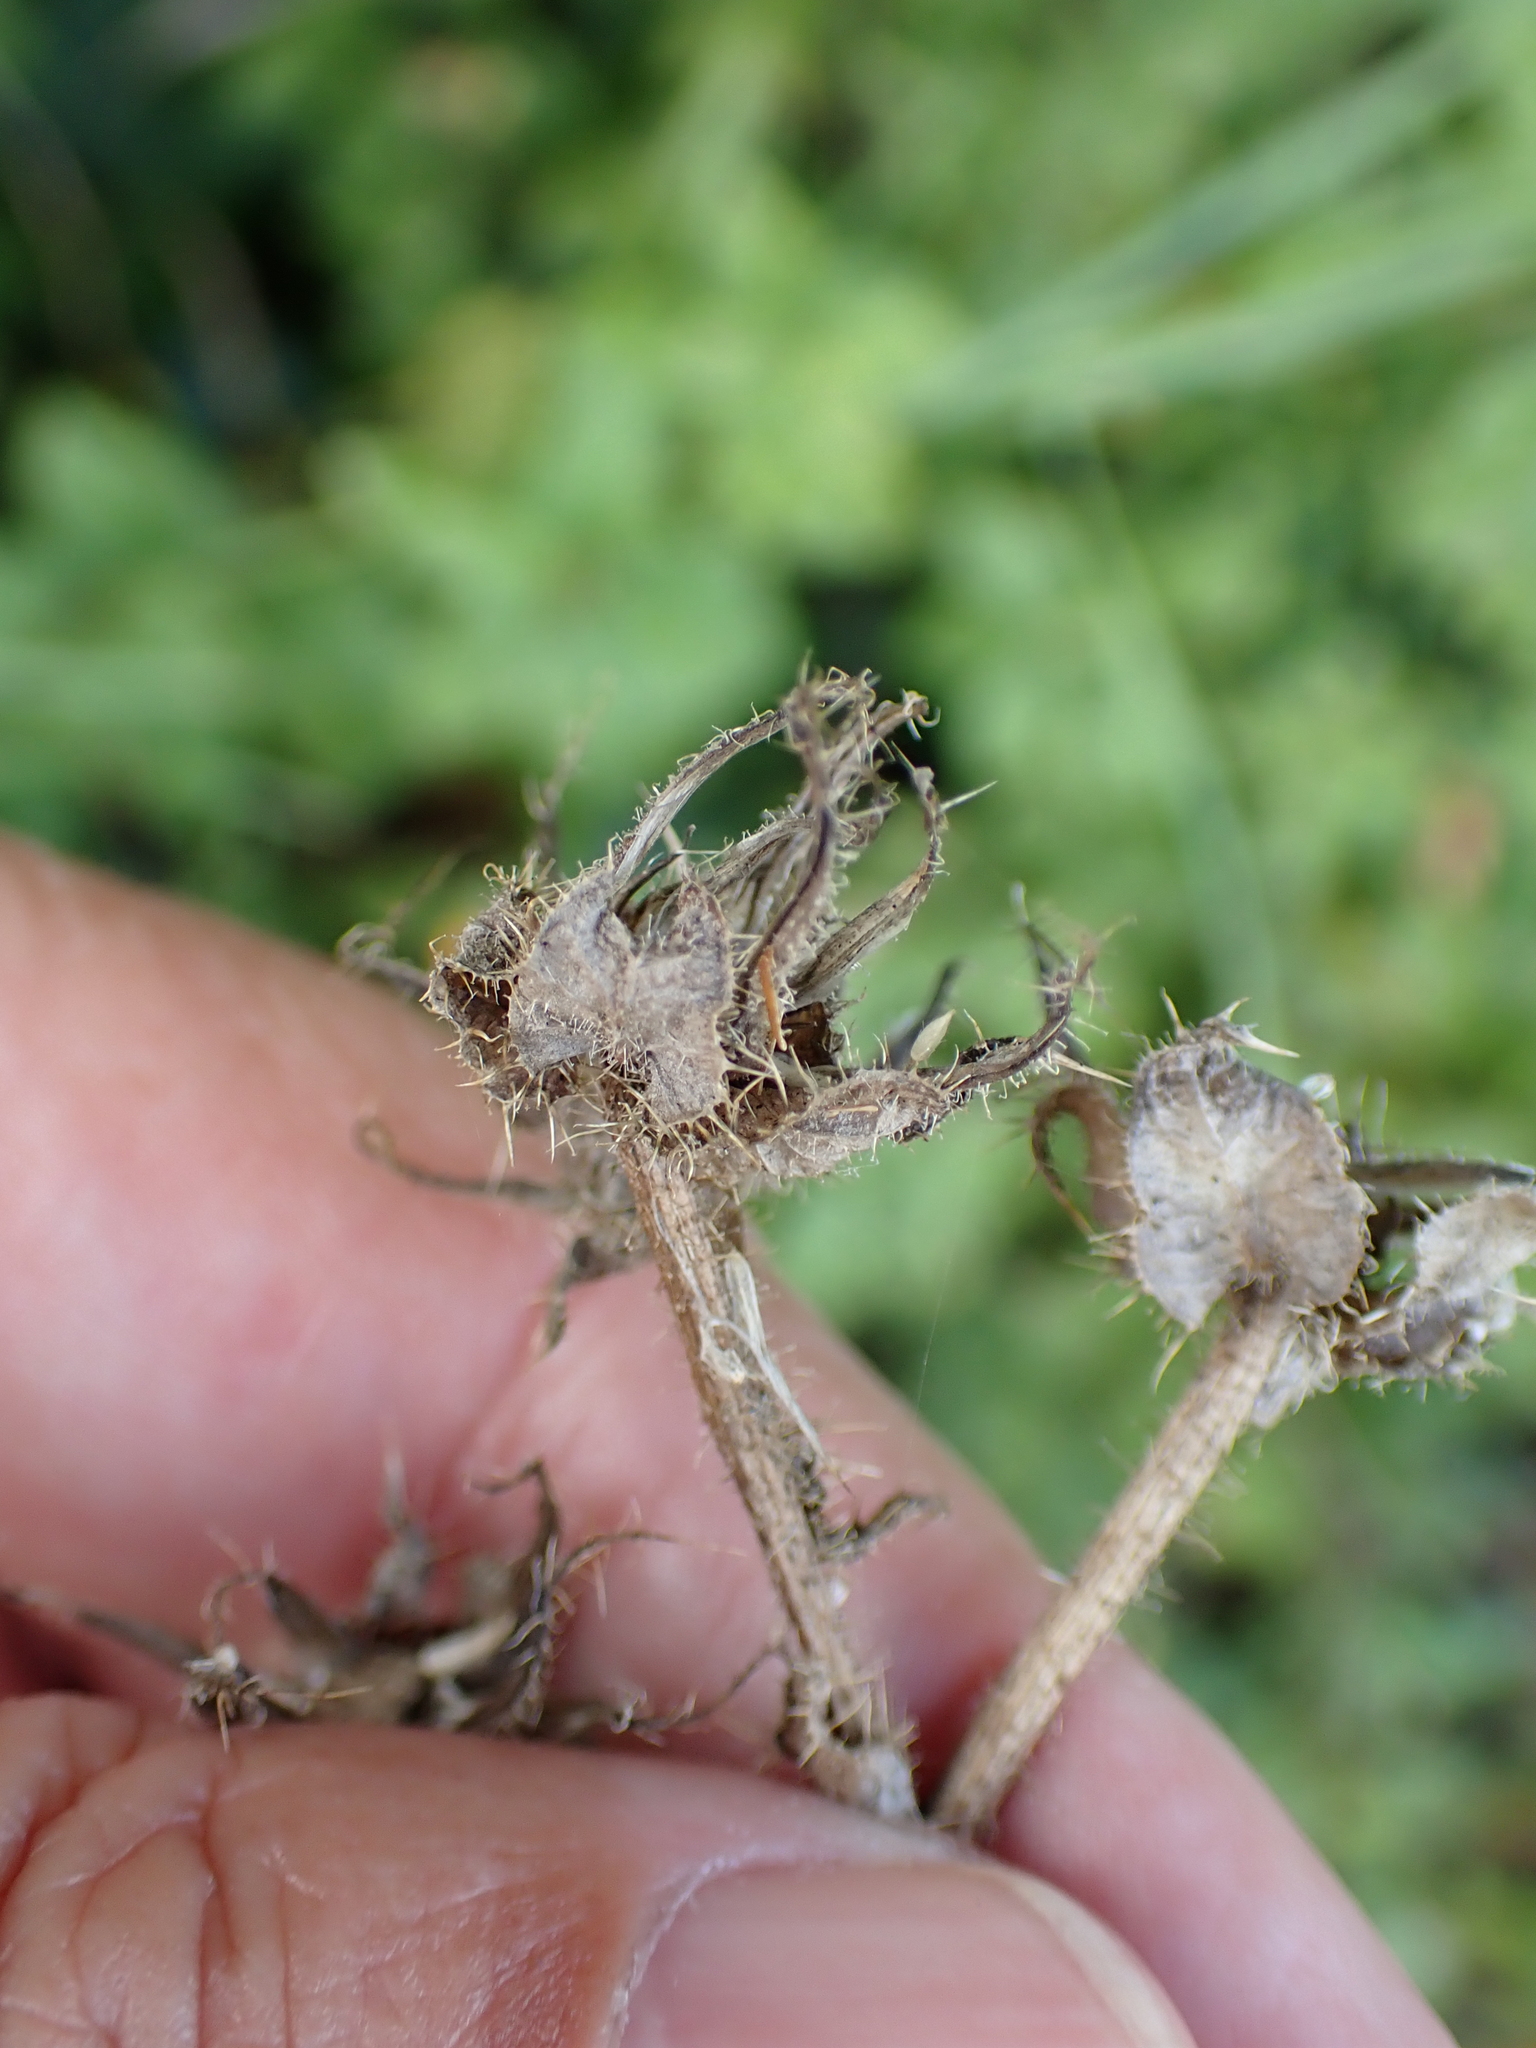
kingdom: Plantae
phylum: Tracheophyta
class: Magnoliopsida
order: Asterales
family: Asteraceae
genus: Helminthotheca
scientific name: Helminthotheca echioides
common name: Ox-tongue
